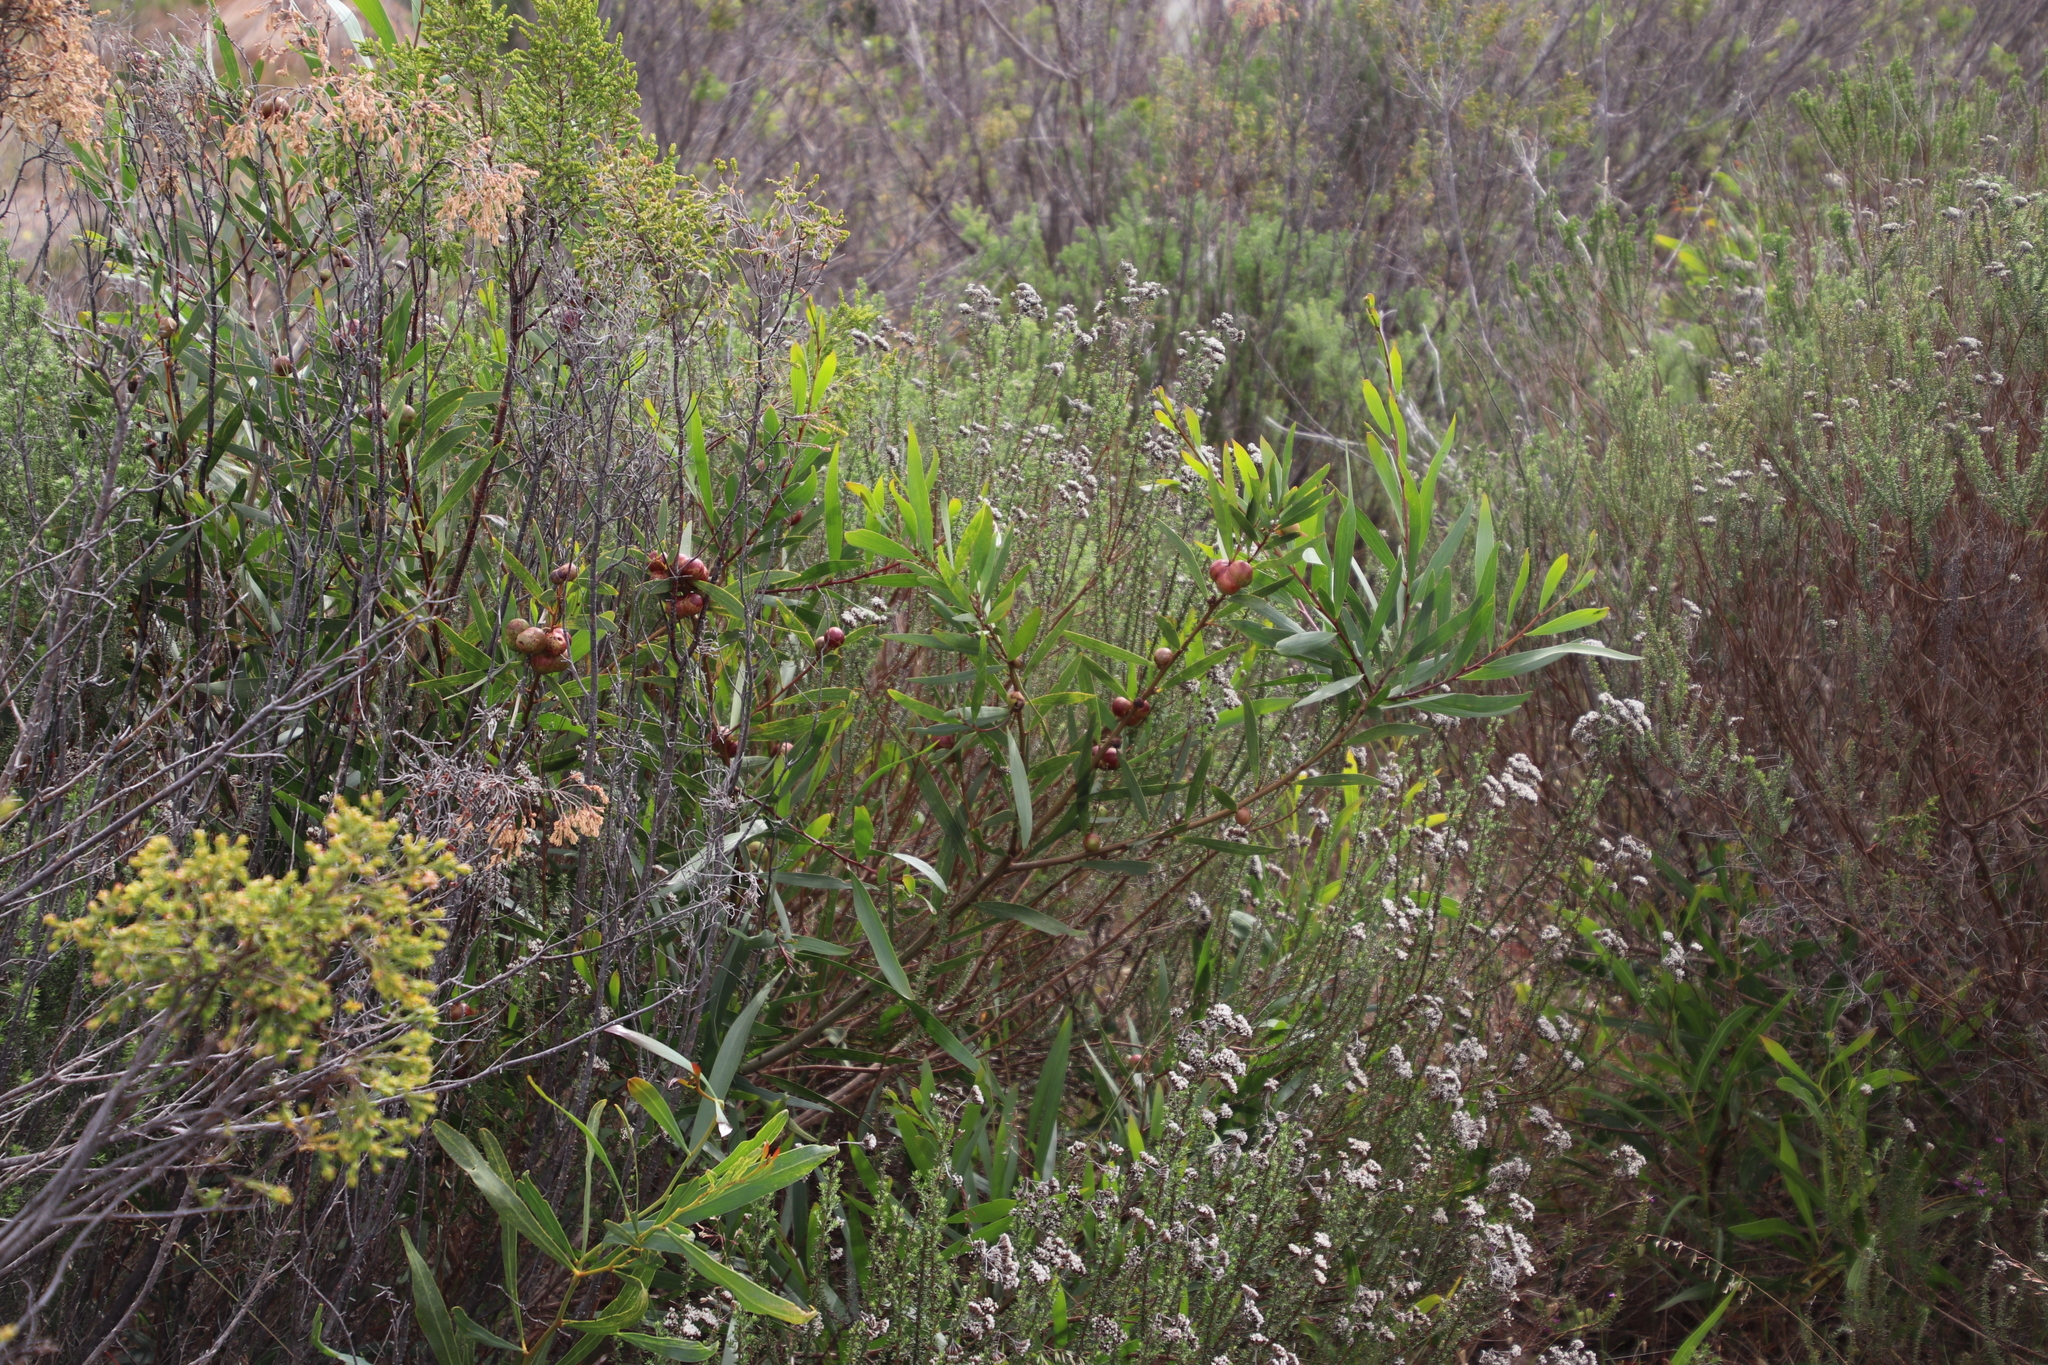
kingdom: Plantae
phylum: Tracheophyta
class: Magnoliopsida
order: Fabales
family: Fabaceae
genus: Acacia
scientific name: Acacia longifolia
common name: Sydney golden wattle
